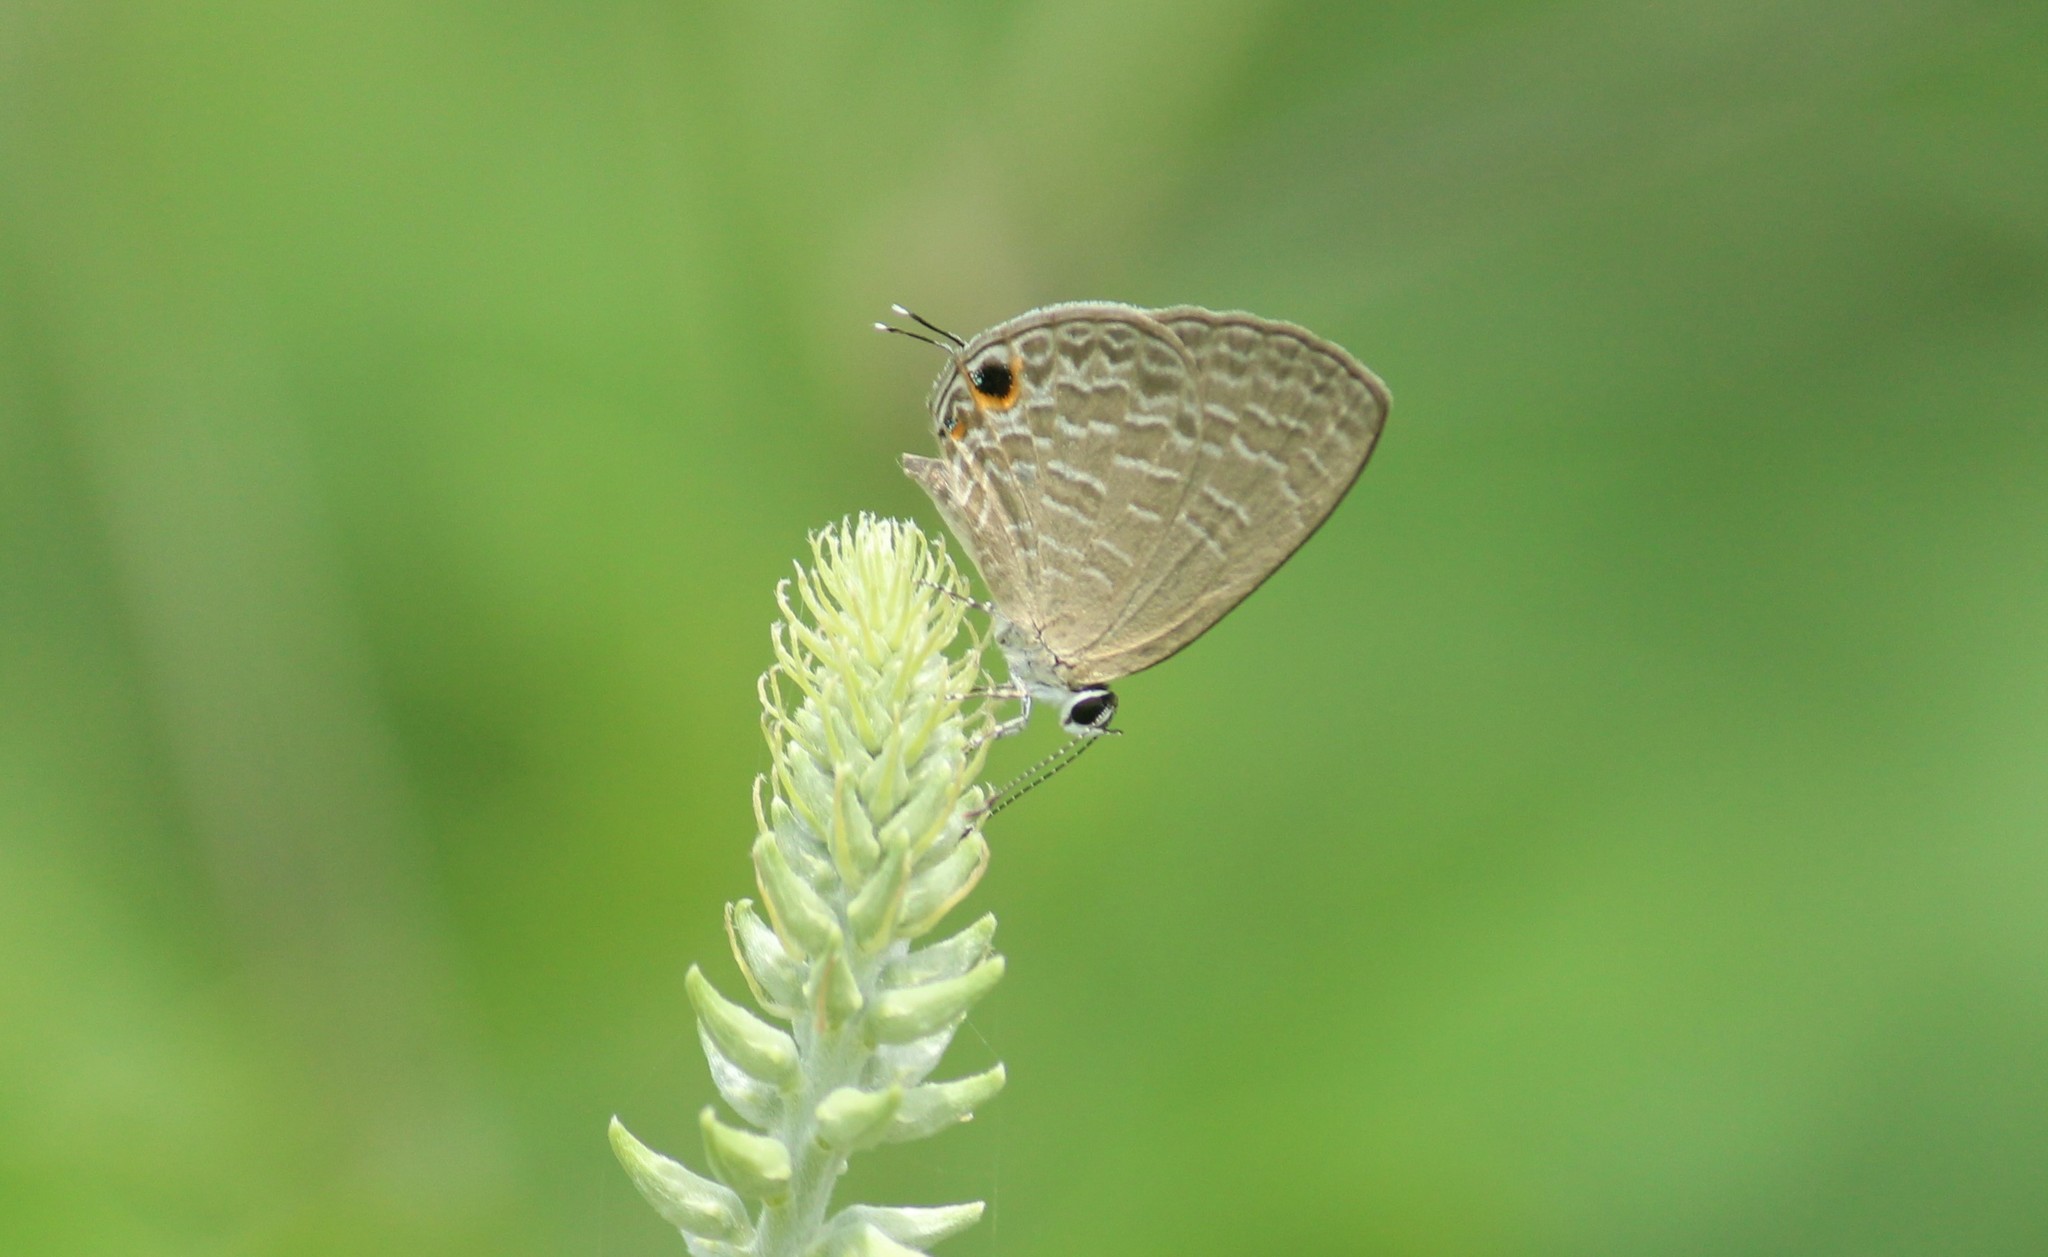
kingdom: Animalia
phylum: Arthropoda
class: Insecta
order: Lepidoptera
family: Lycaenidae
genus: Jamides
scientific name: Jamides bochus
